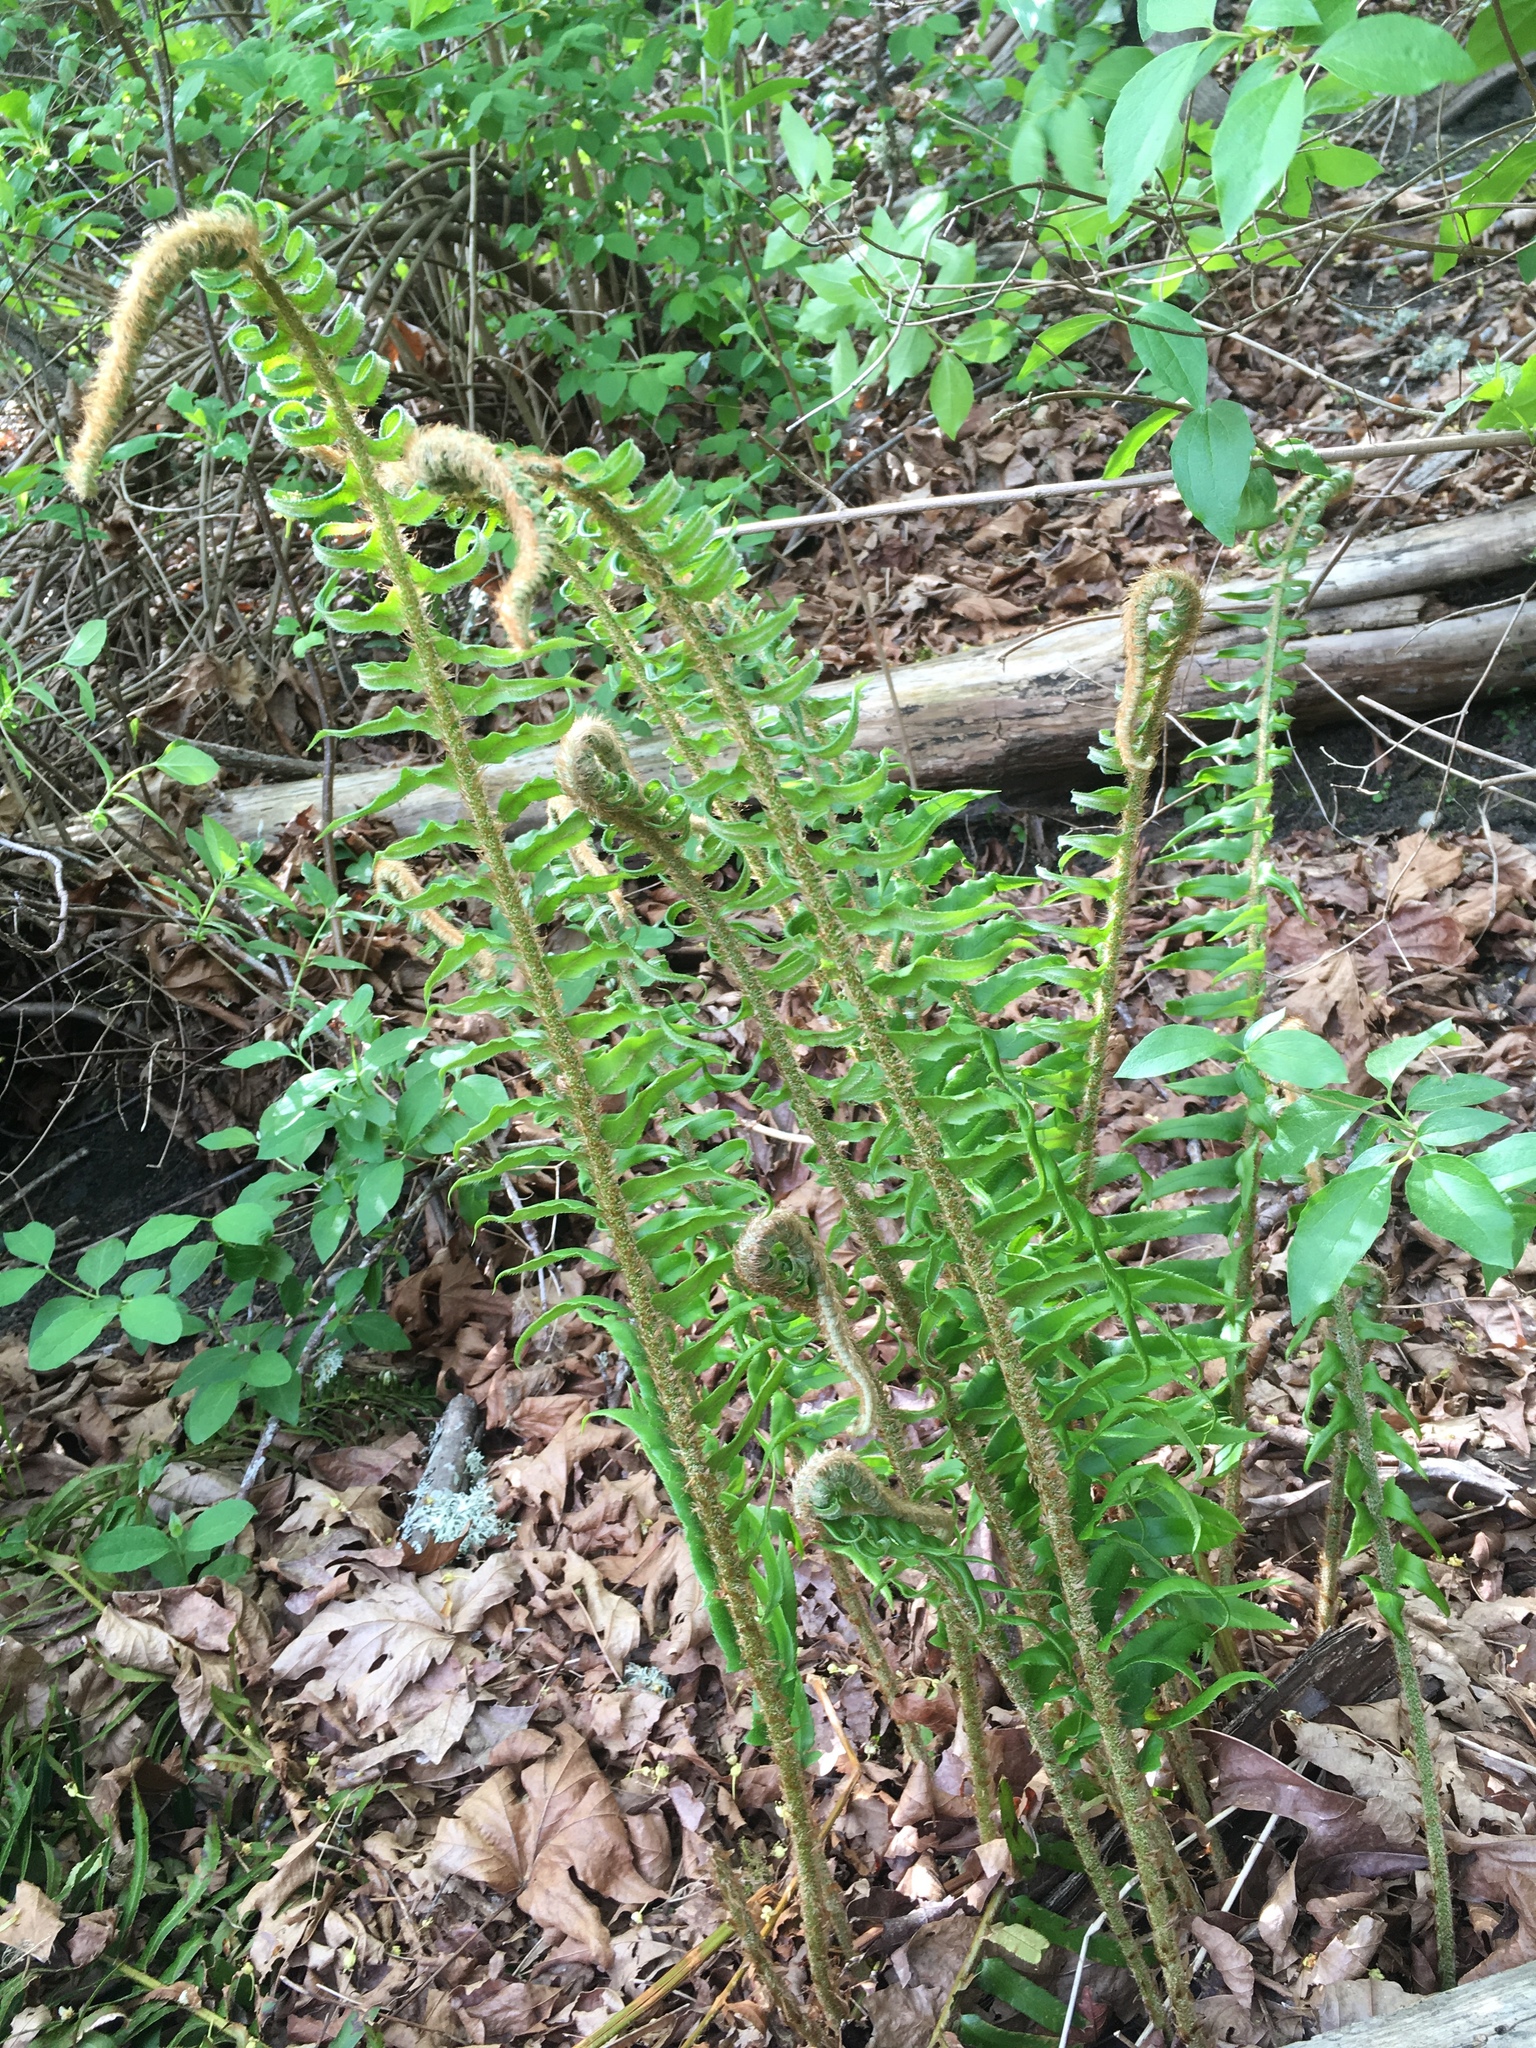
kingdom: Plantae
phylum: Tracheophyta
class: Polypodiopsida
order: Polypodiales
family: Dryopteridaceae
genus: Polystichum
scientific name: Polystichum munitum
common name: Western sword-fern
